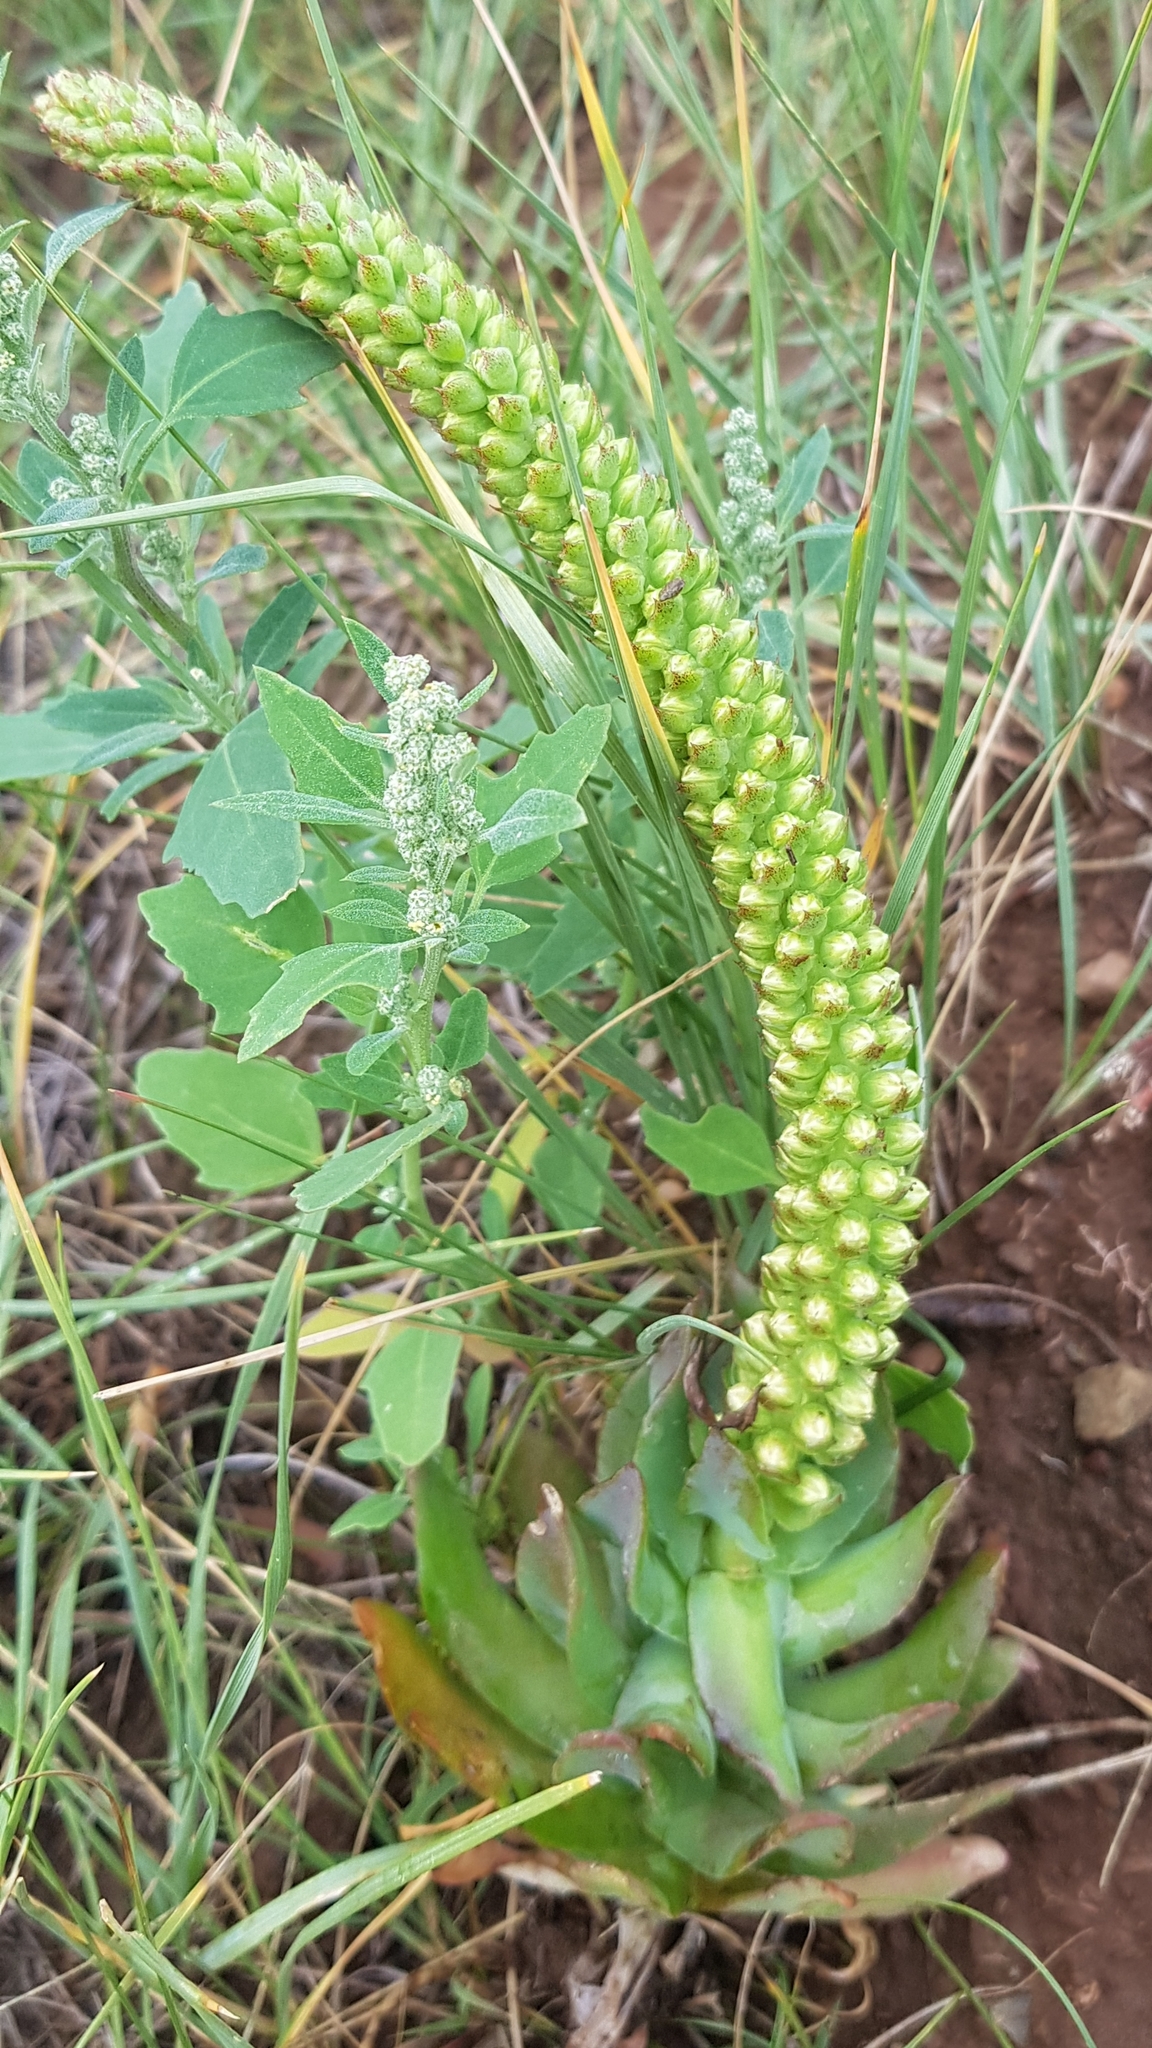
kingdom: Plantae
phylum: Tracheophyta
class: Magnoliopsida
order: Saxifragales
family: Crassulaceae
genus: Orostachys
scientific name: Orostachys malacophylla
